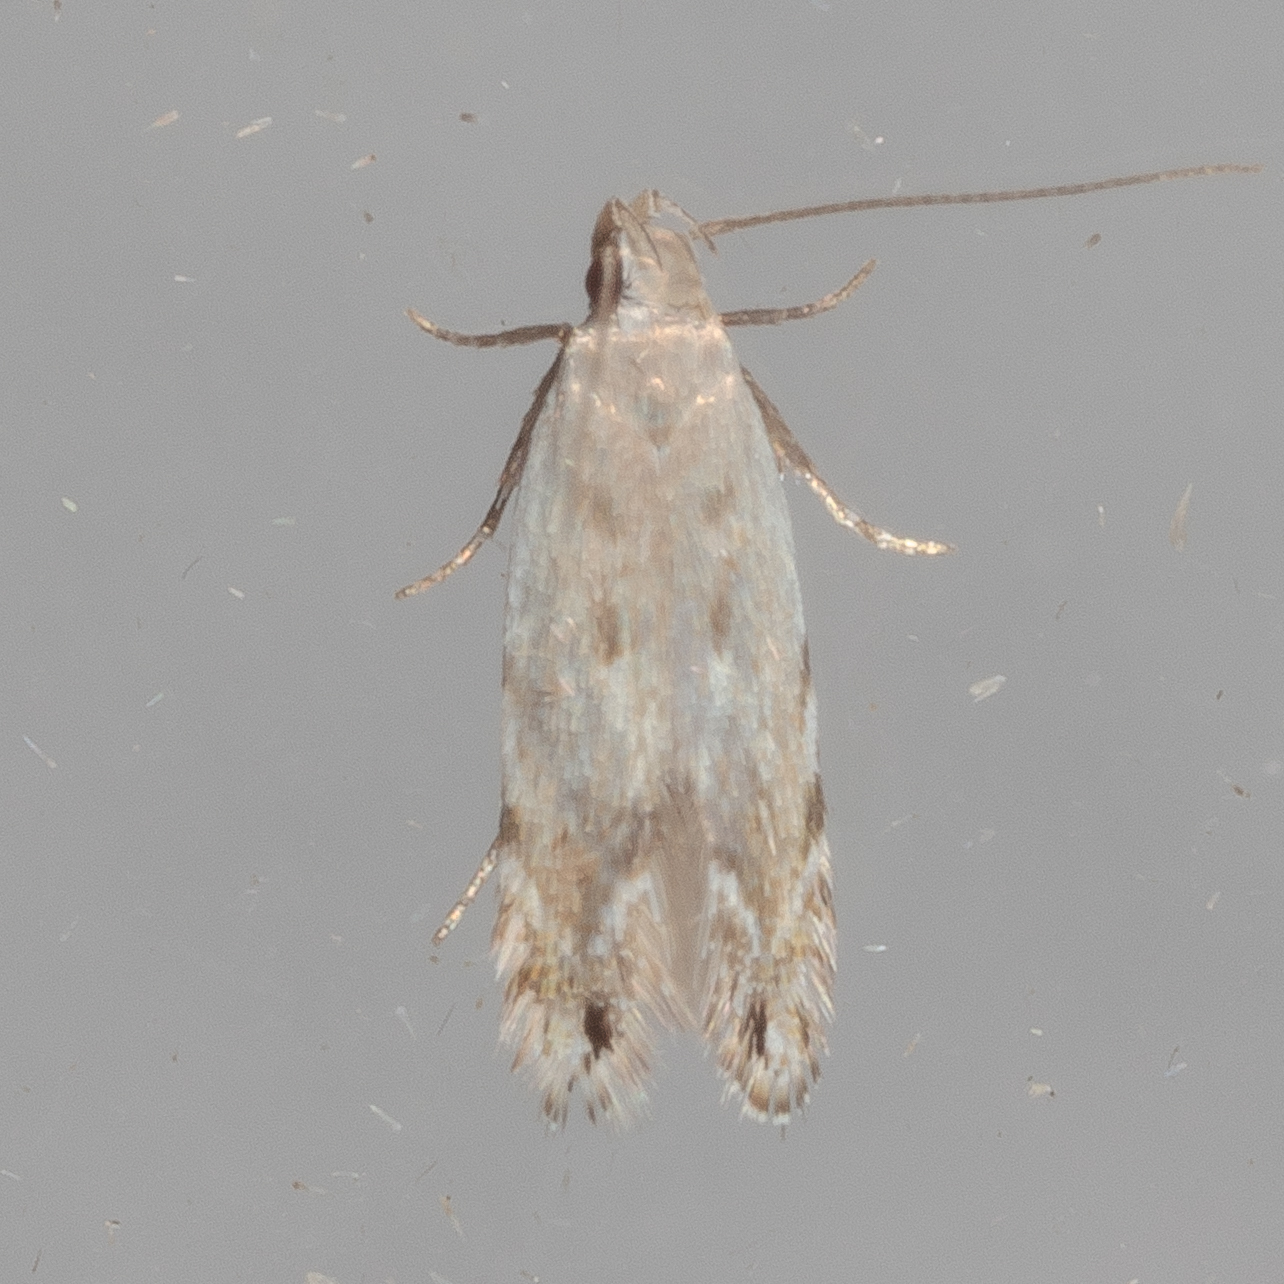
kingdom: Animalia
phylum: Arthropoda
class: Insecta
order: Lepidoptera
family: Gelechiidae
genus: Battaristis
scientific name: Battaristis concinnusella
